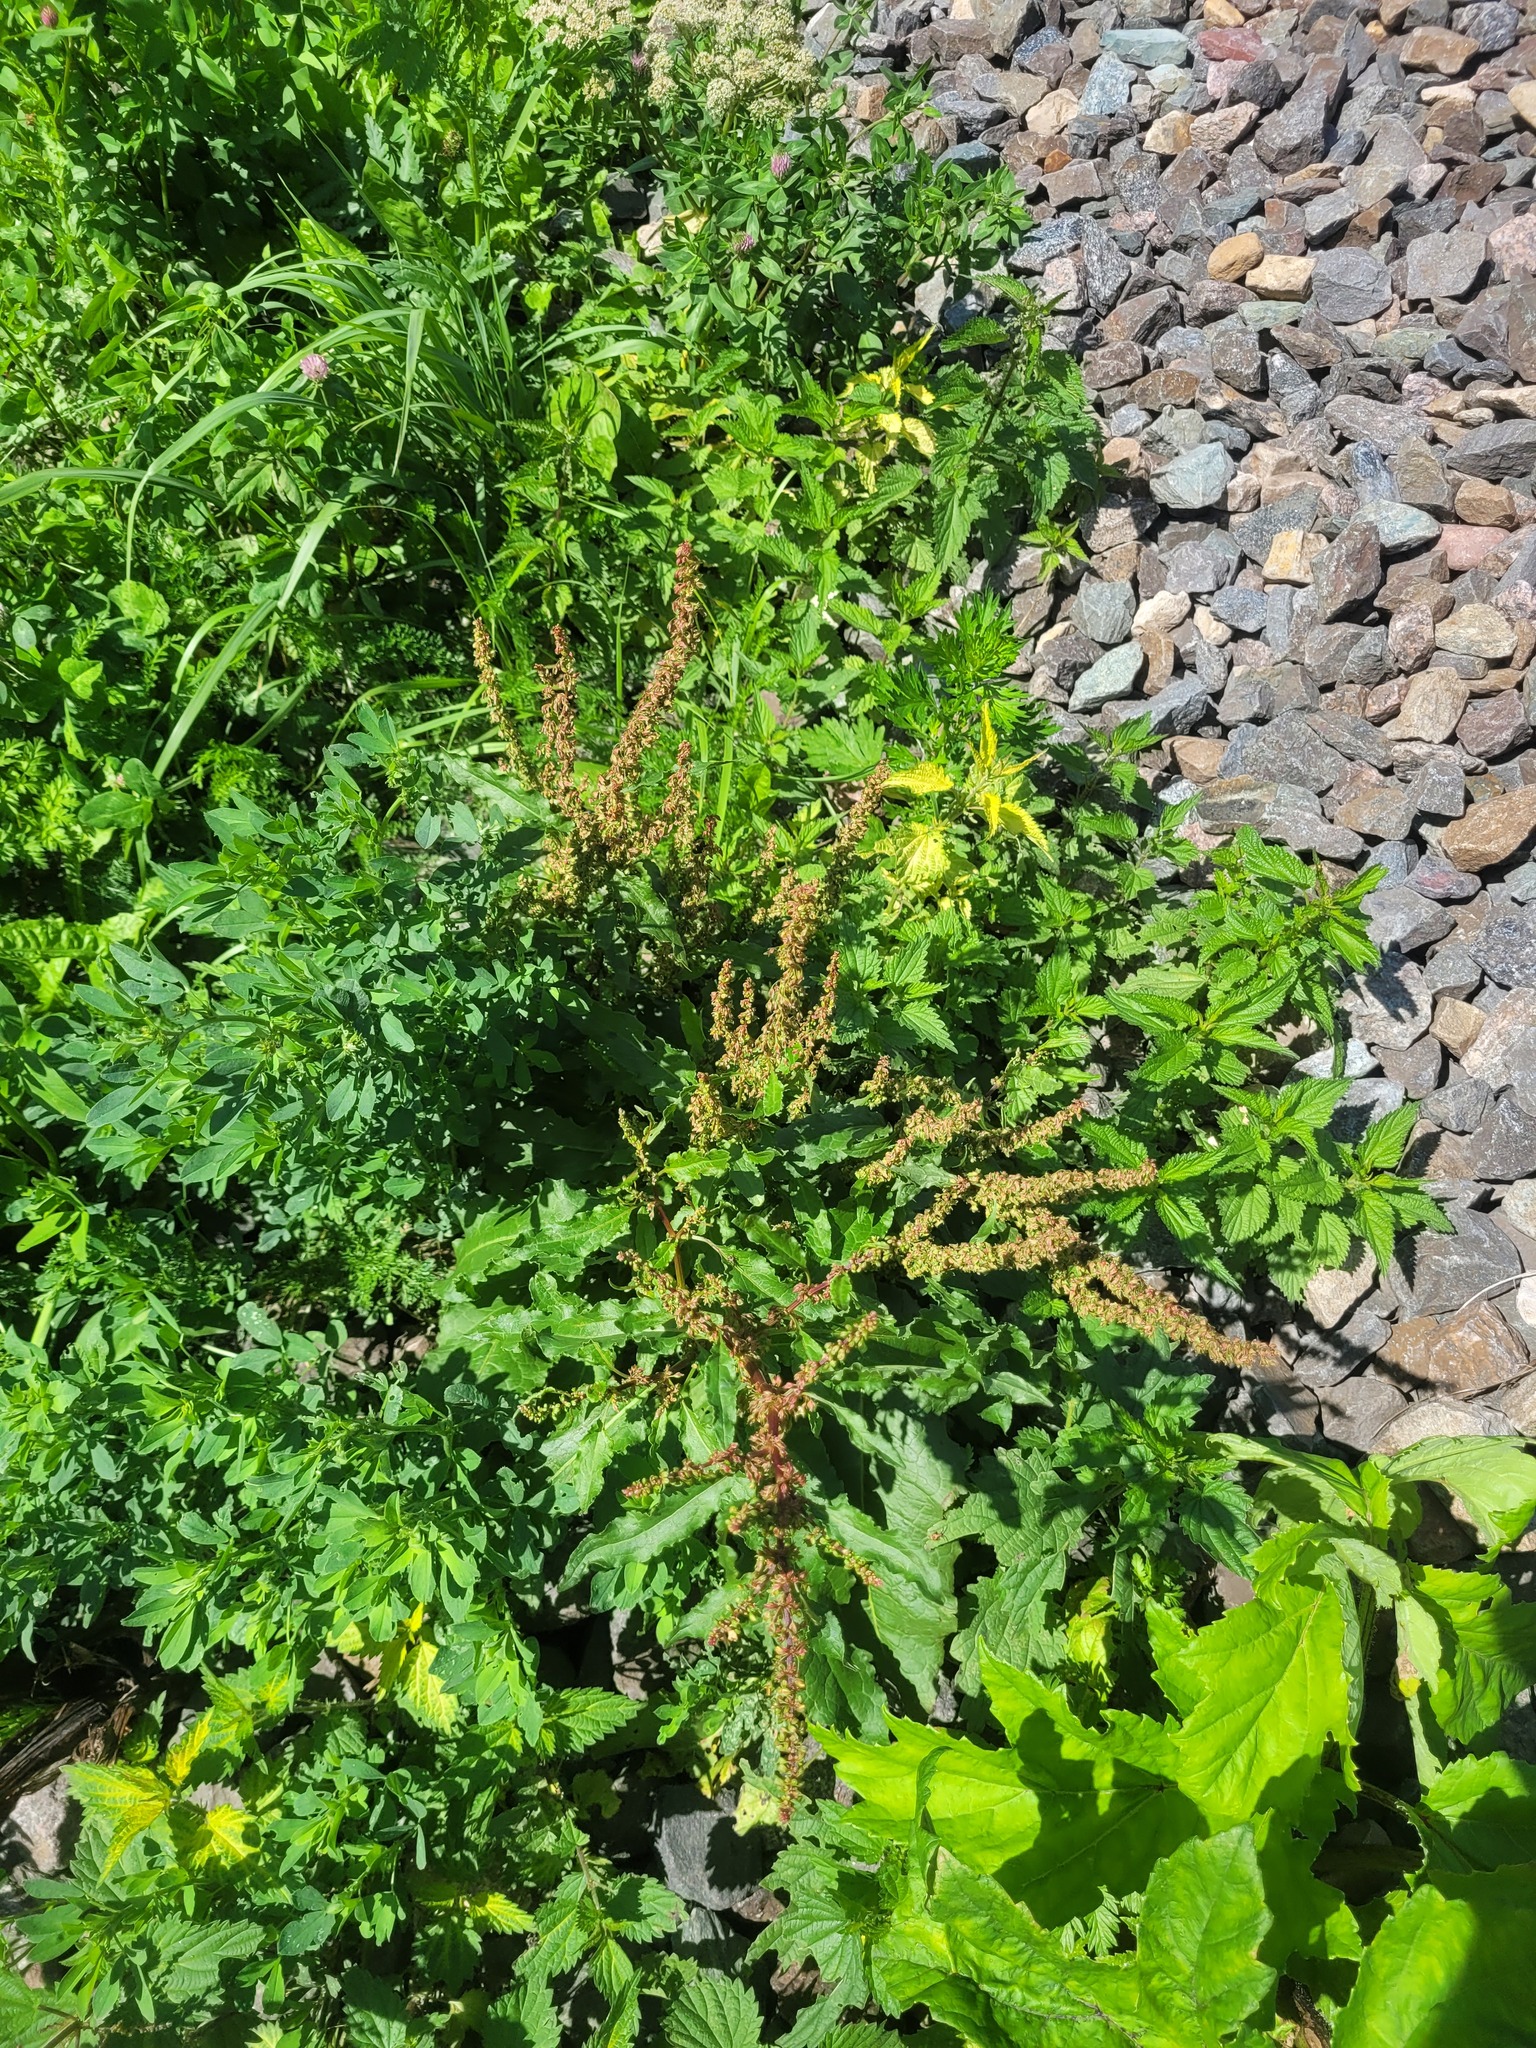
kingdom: Plantae
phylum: Tracheophyta
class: Magnoliopsida
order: Caryophyllales
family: Polygonaceae
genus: Rumex
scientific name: Rumex obtusifolius
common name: Bitter dock
